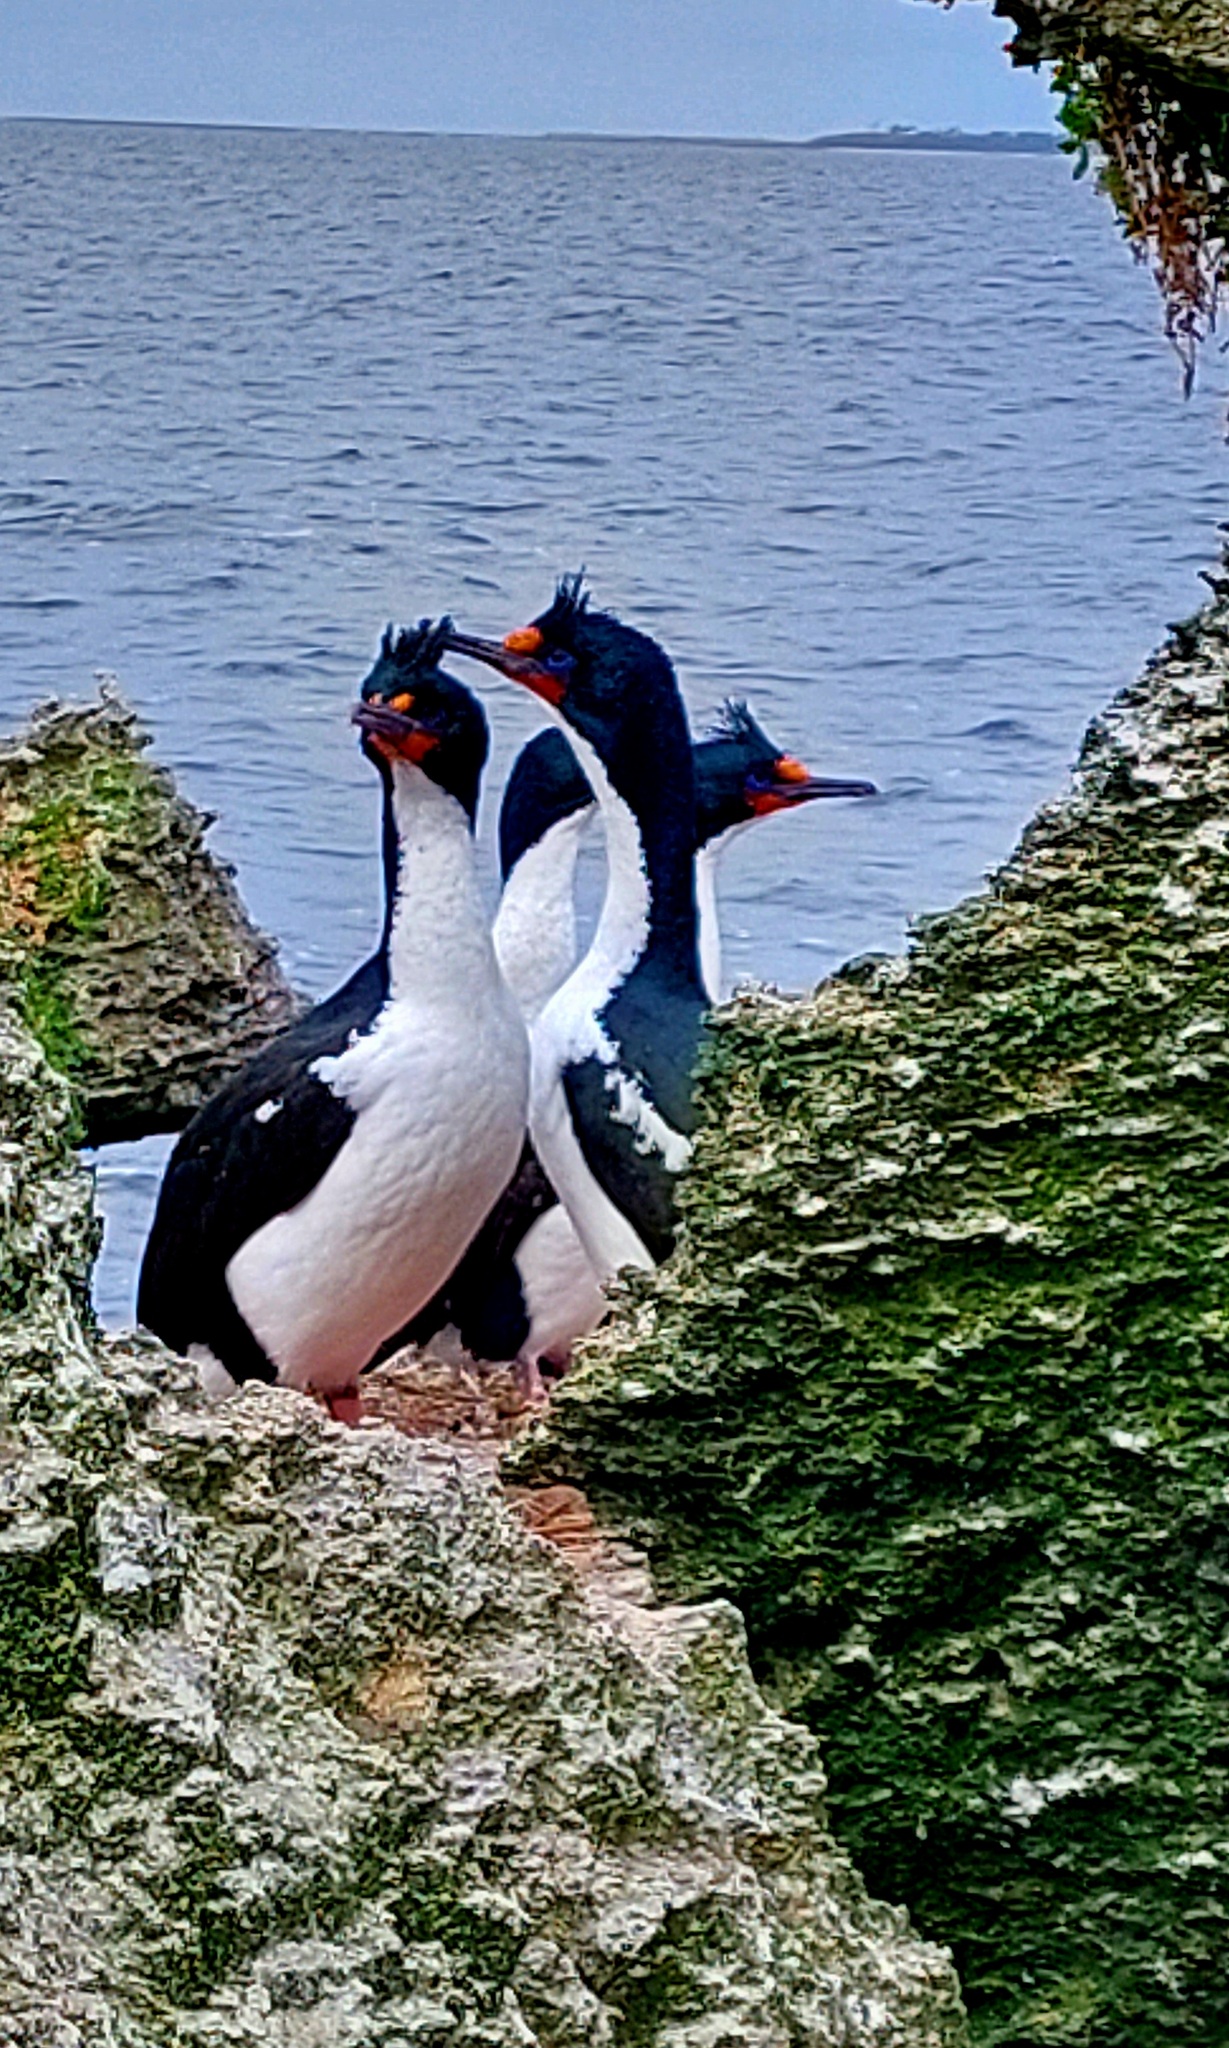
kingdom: Animalia
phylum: Chordata
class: Aves
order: Suliformes
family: Phalacrocoracidae
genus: Leucocarbo
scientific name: Leucocarbo onslowi
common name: Chatham shag
